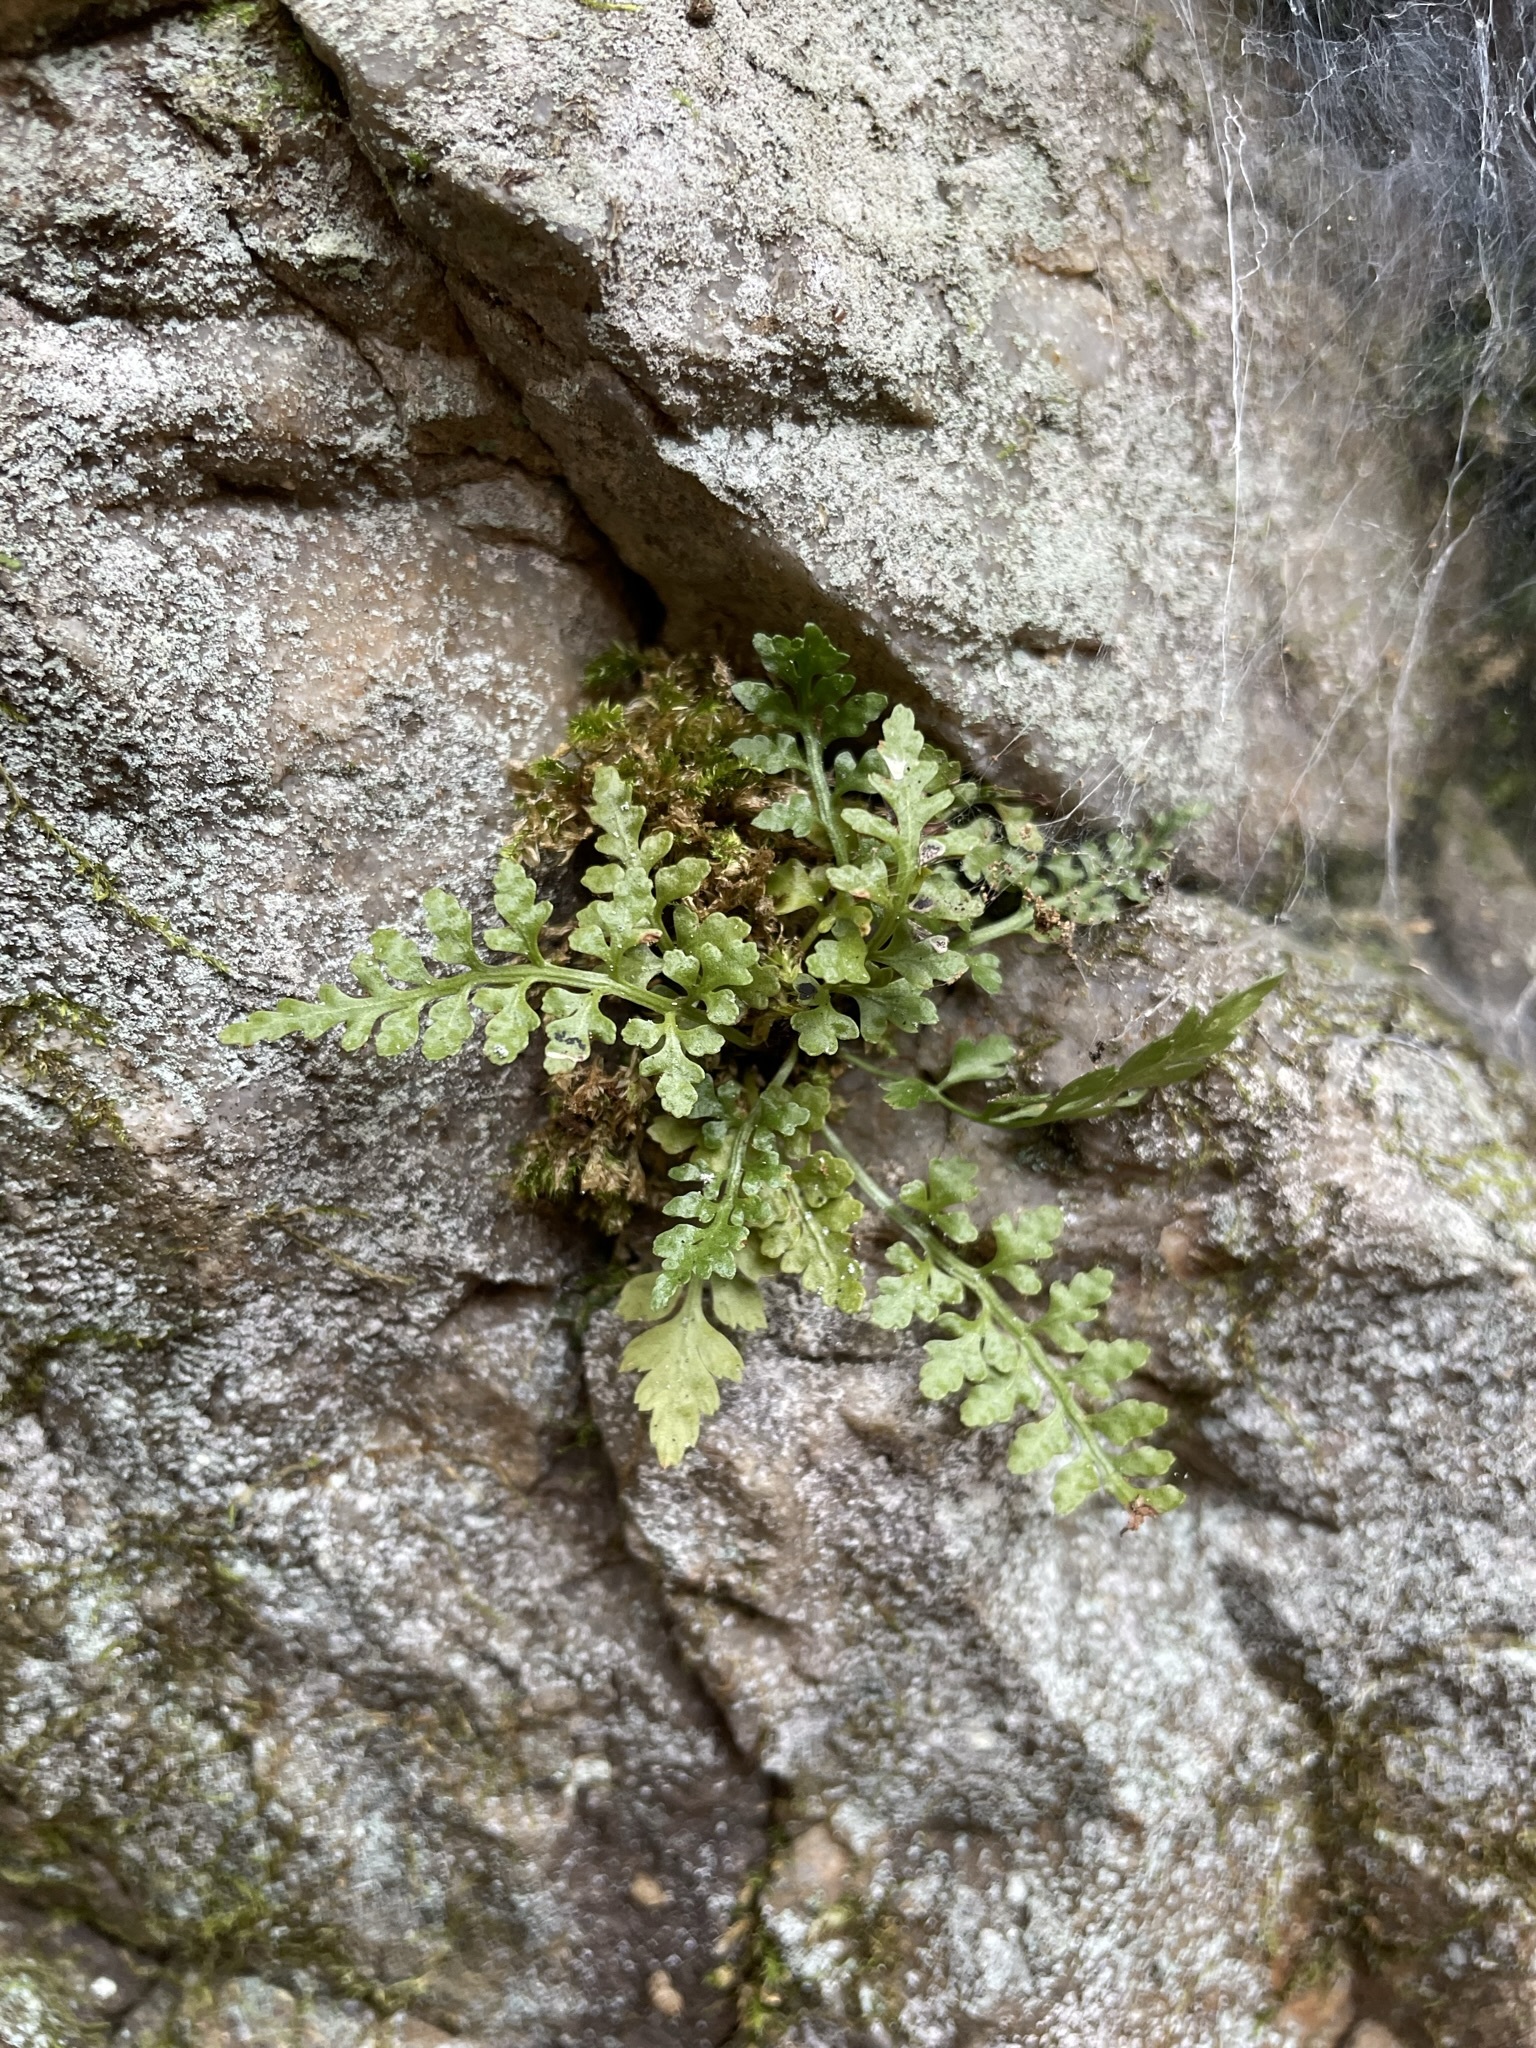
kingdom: Plantae
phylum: Tracheophyta
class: Polypodiopsida
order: Polypodiales
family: Aspleniaceae
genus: Asplenium
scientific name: Asplenium montanum
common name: Mountain spleenwort
